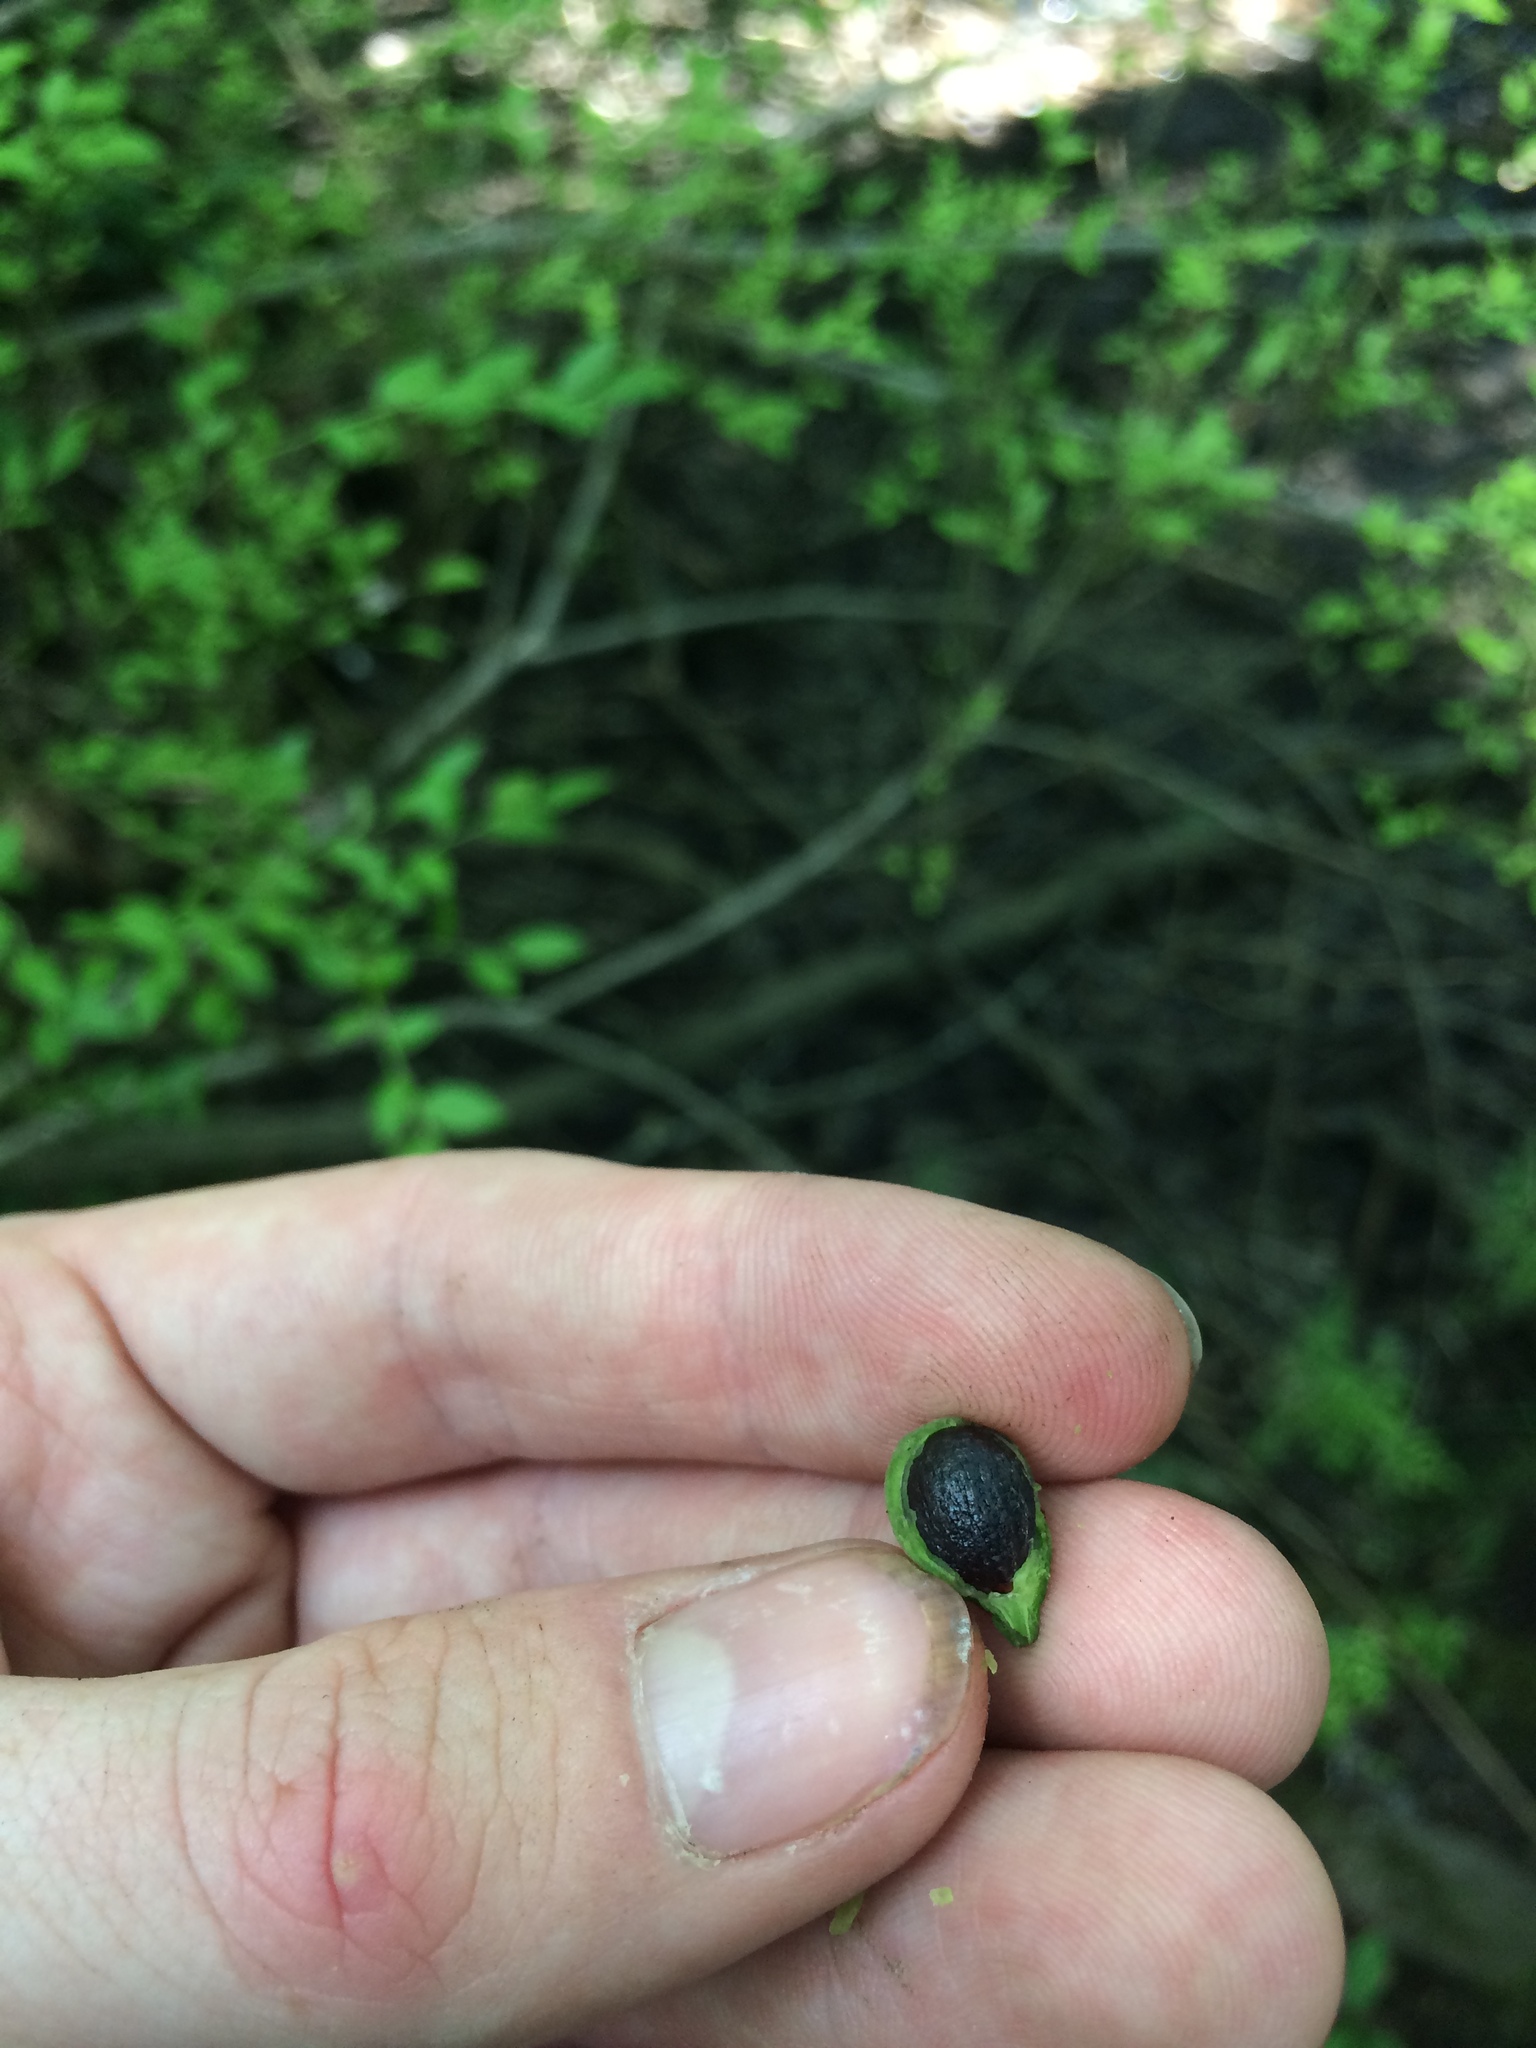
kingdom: Plantae
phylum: Tracheophyta
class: Magnoliopsida
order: Ericales
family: Styracaceae
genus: Styrax
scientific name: Styrax americanus
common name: American snowbell
